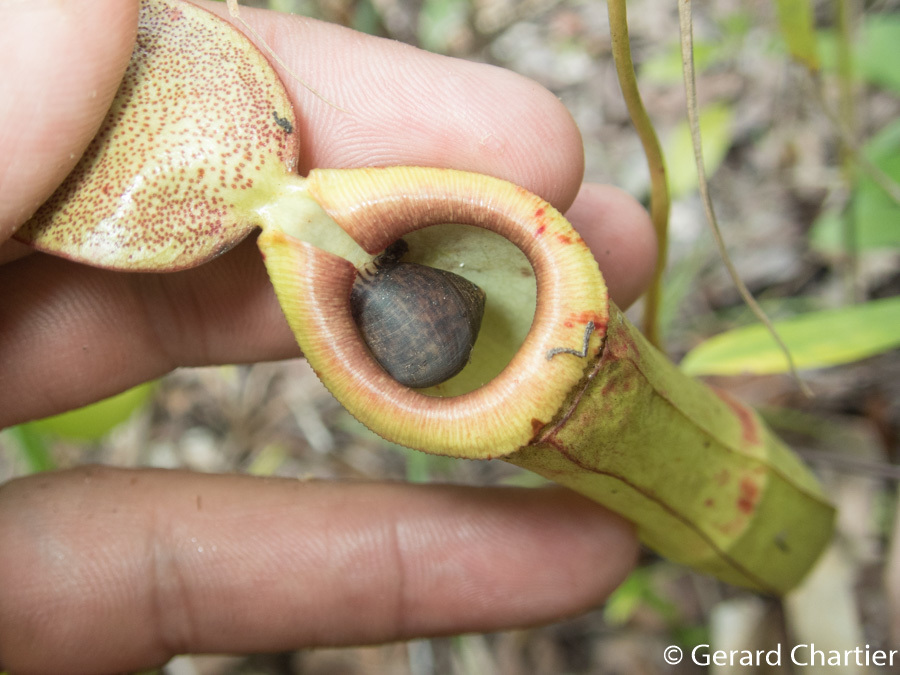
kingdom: Animalia
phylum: Mollusca
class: Gastropoda
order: Ellobiida
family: Ellobiidae
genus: Pythia
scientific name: Pythia trigona
